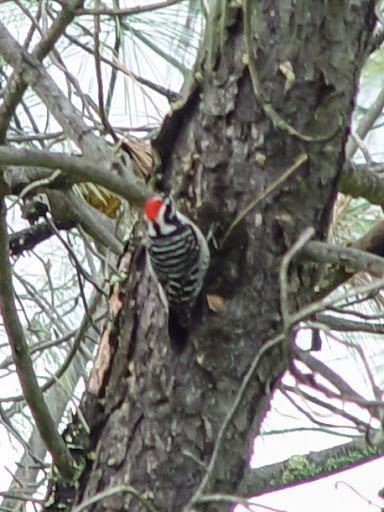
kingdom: Animalia
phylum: Chordata
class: Aves
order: Piciformes
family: Picidae
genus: Dryobates
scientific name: Dryobates nuttallii
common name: Nuttall's woodpecker
